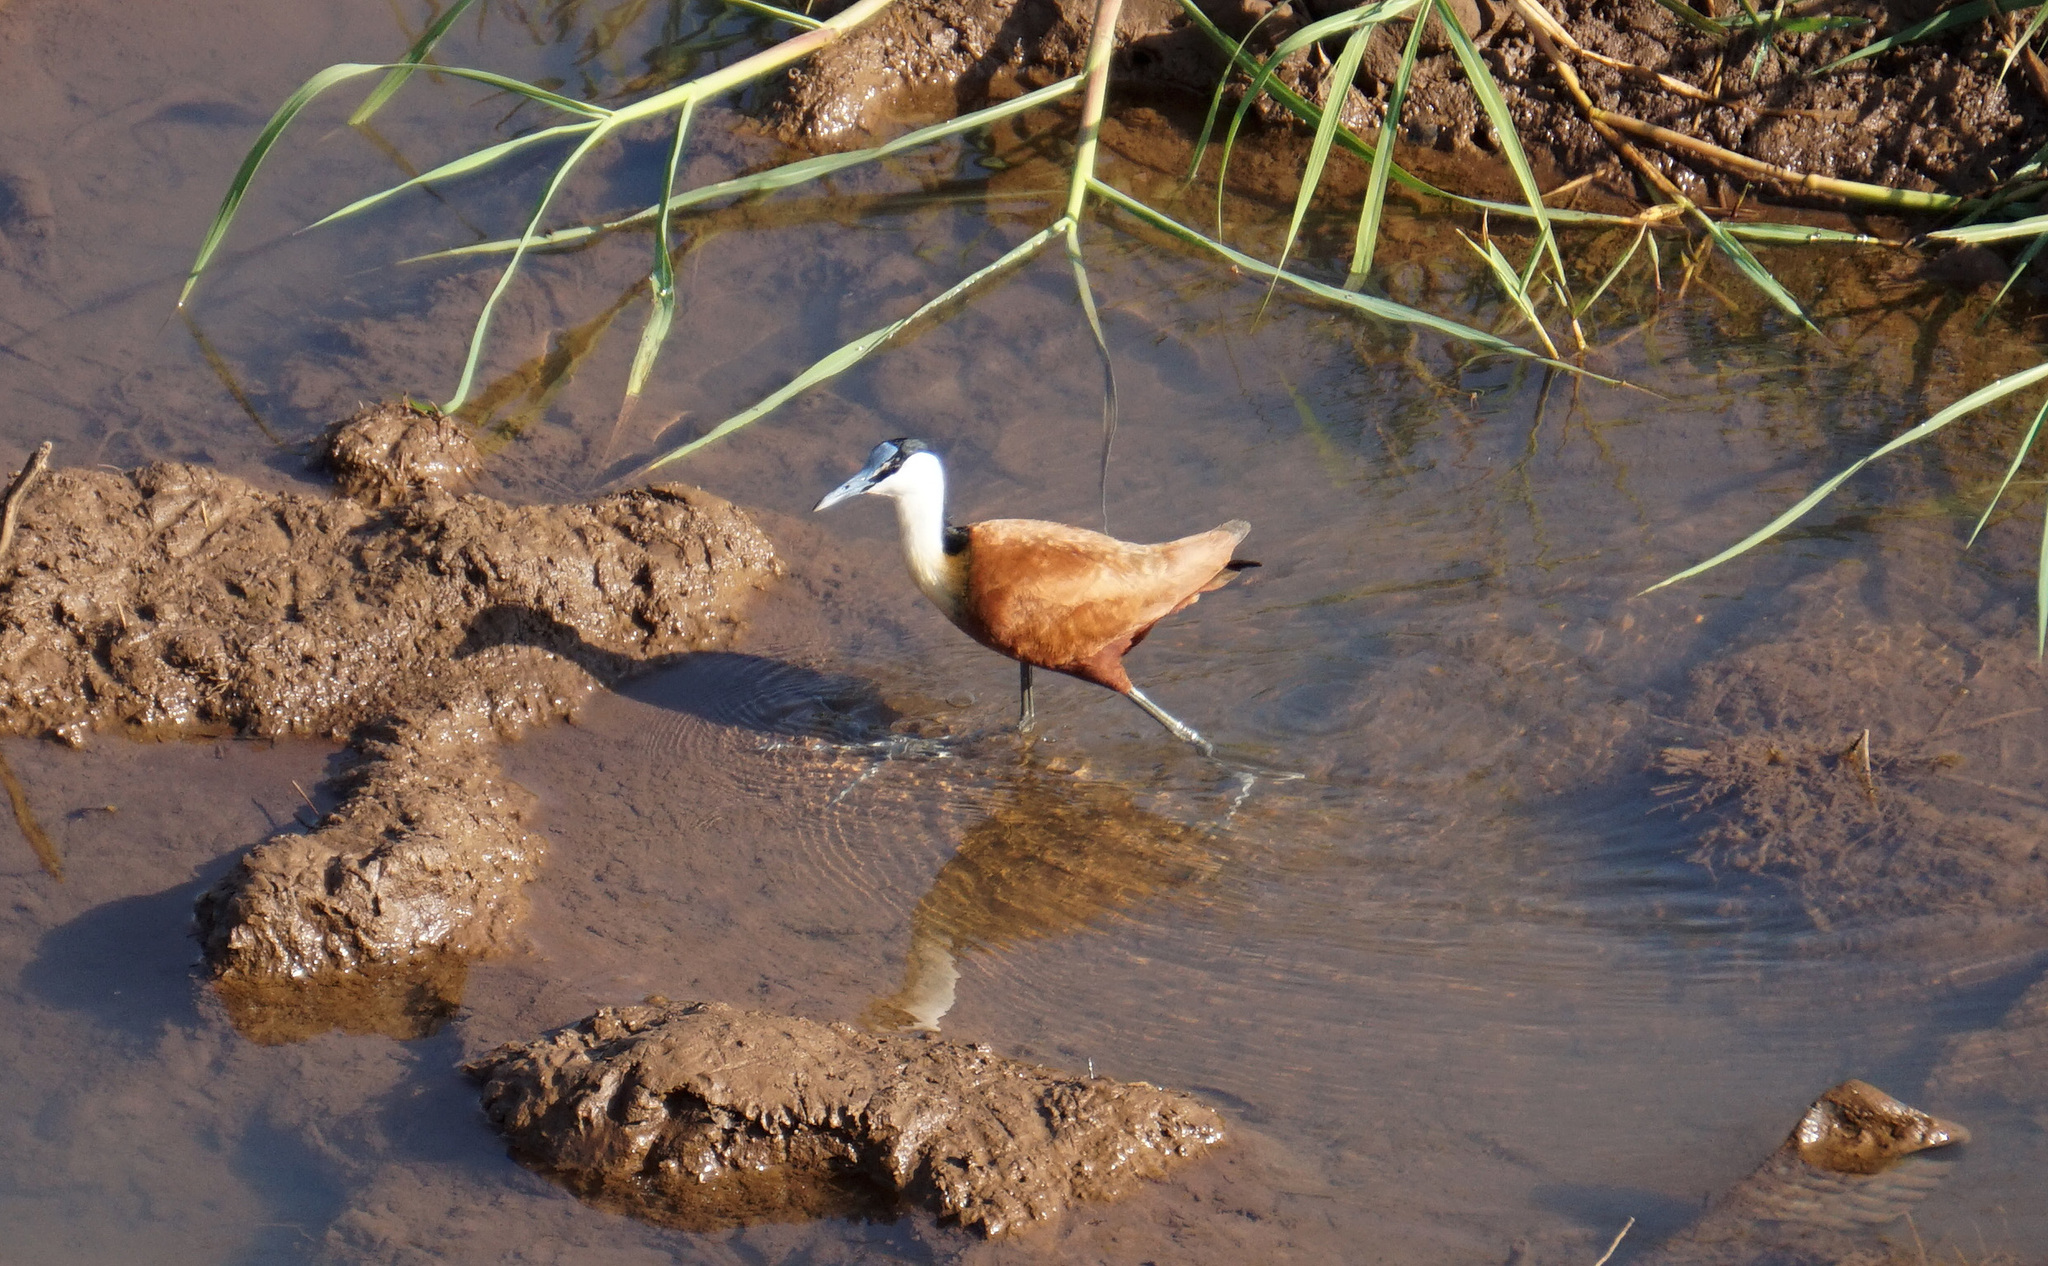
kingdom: Animalia
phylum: Chordata
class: Aves
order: Charadriiformes
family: Jacanidae
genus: Actophilornis
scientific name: Actophilornis africanus
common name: African jacana
